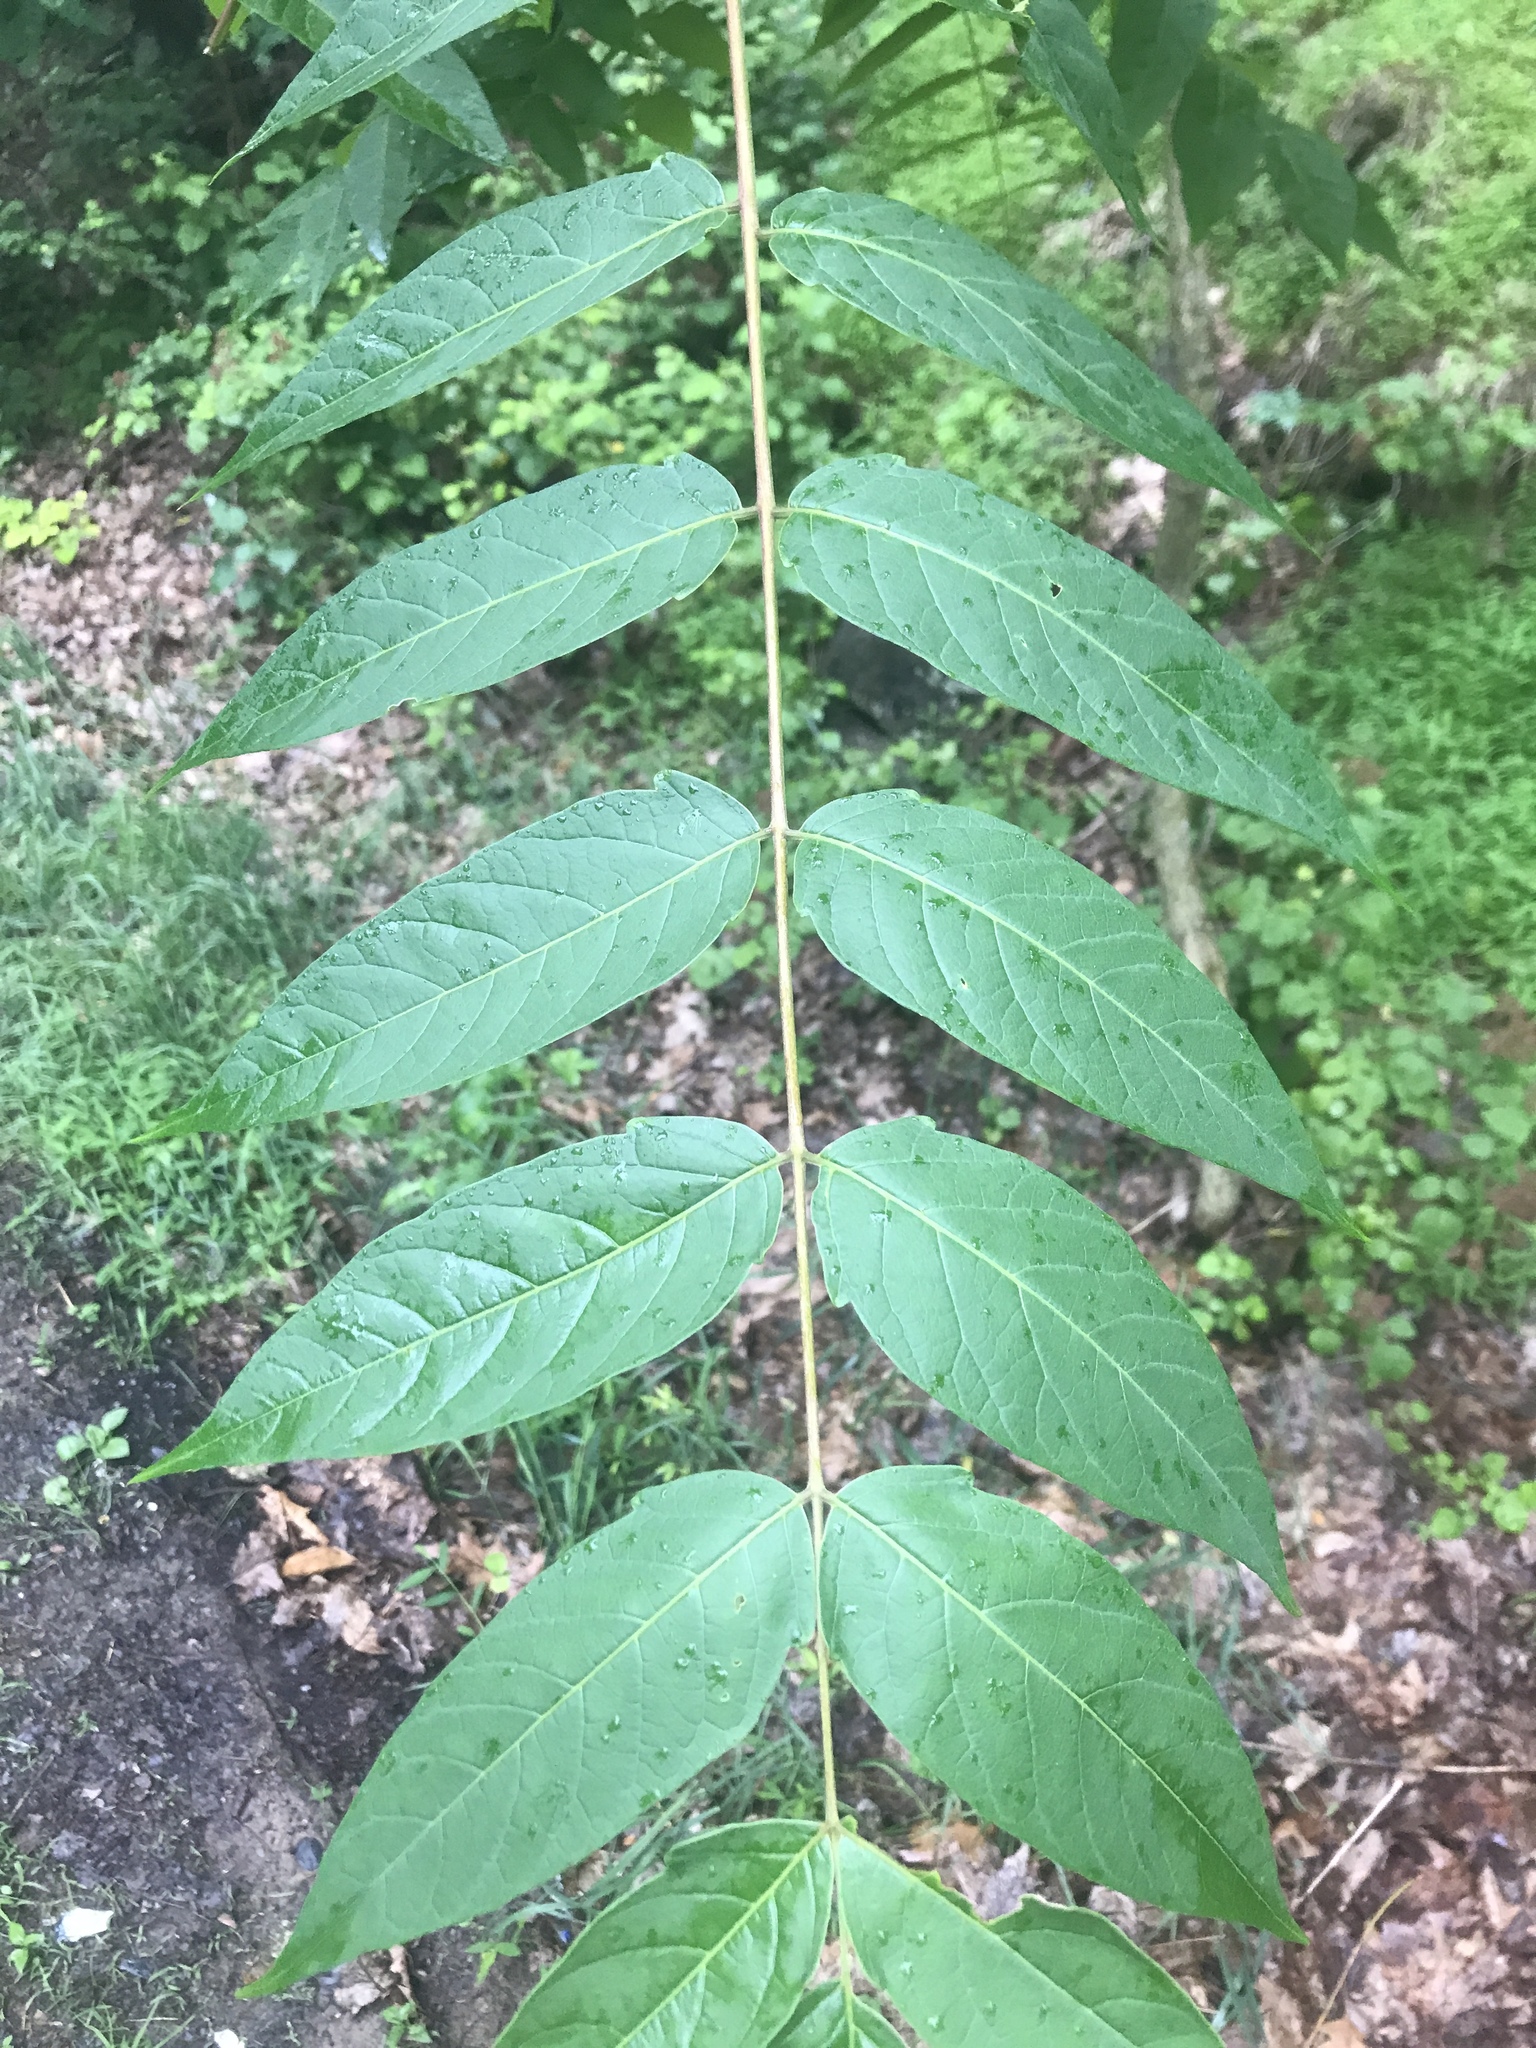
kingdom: Plantae
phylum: Tracheophyta
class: Magnoliopsida
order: Sapindales
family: Simaroubaceae
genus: Ailanthus
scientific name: Ailanthus altissima
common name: Tree-of-heaven
